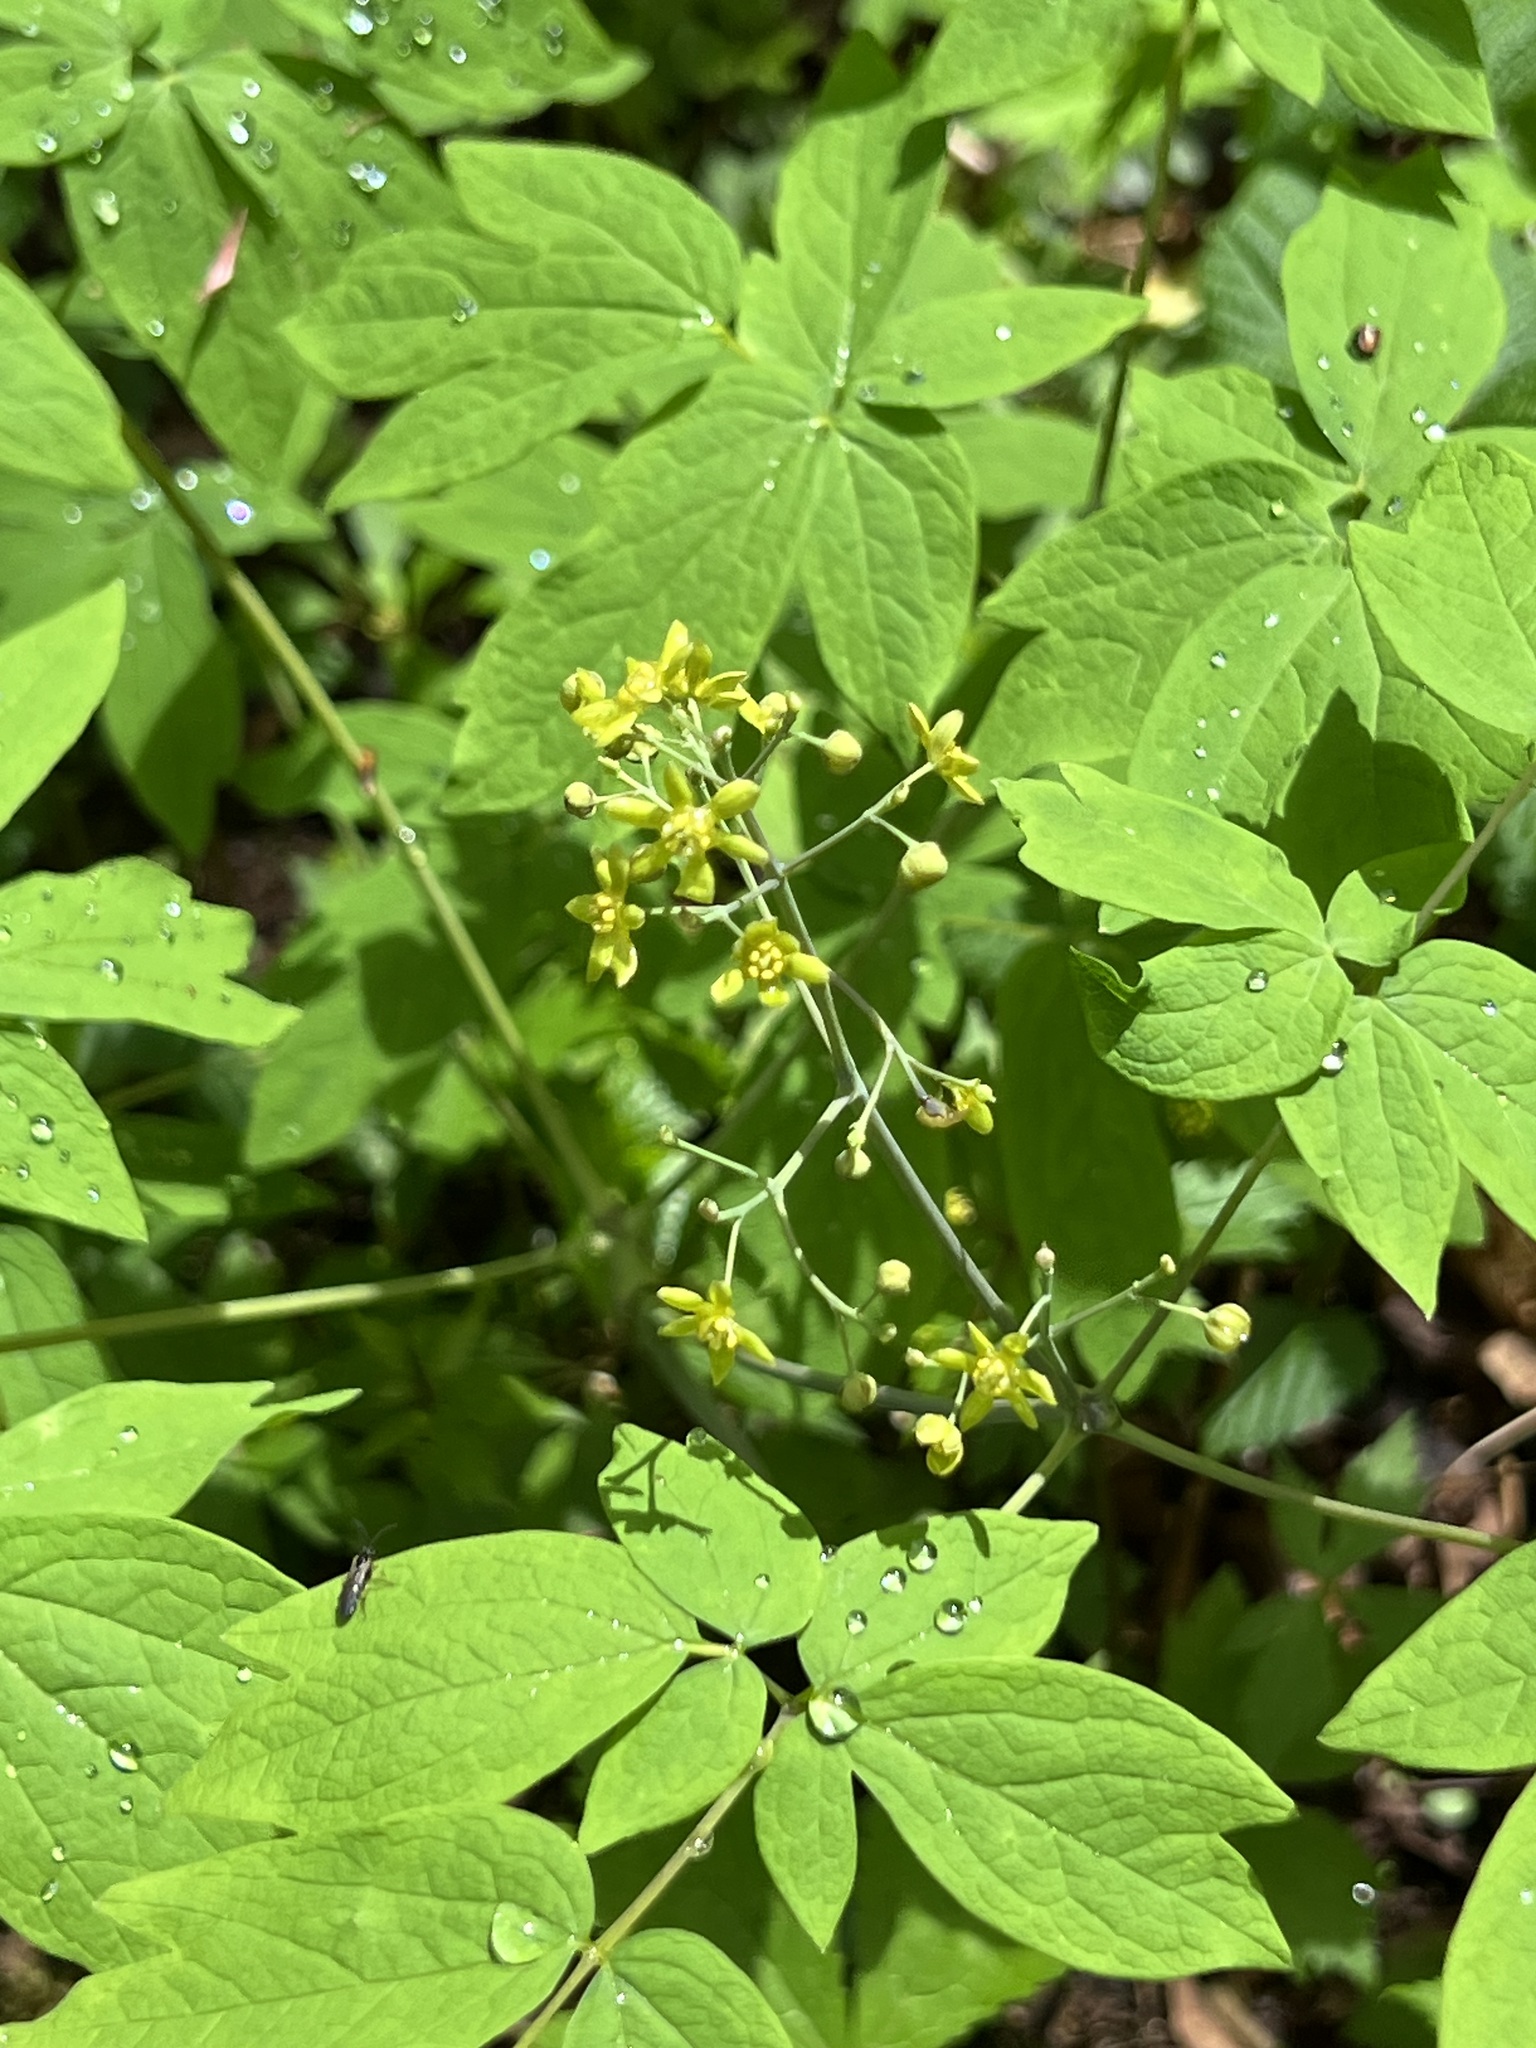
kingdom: Plantae
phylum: Tracheophyta
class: Magnoliopsida
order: Ranunculales
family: Berberidaceae
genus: Caulophyllum
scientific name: Caulophyllum thalictroides
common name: Blue cohosh
